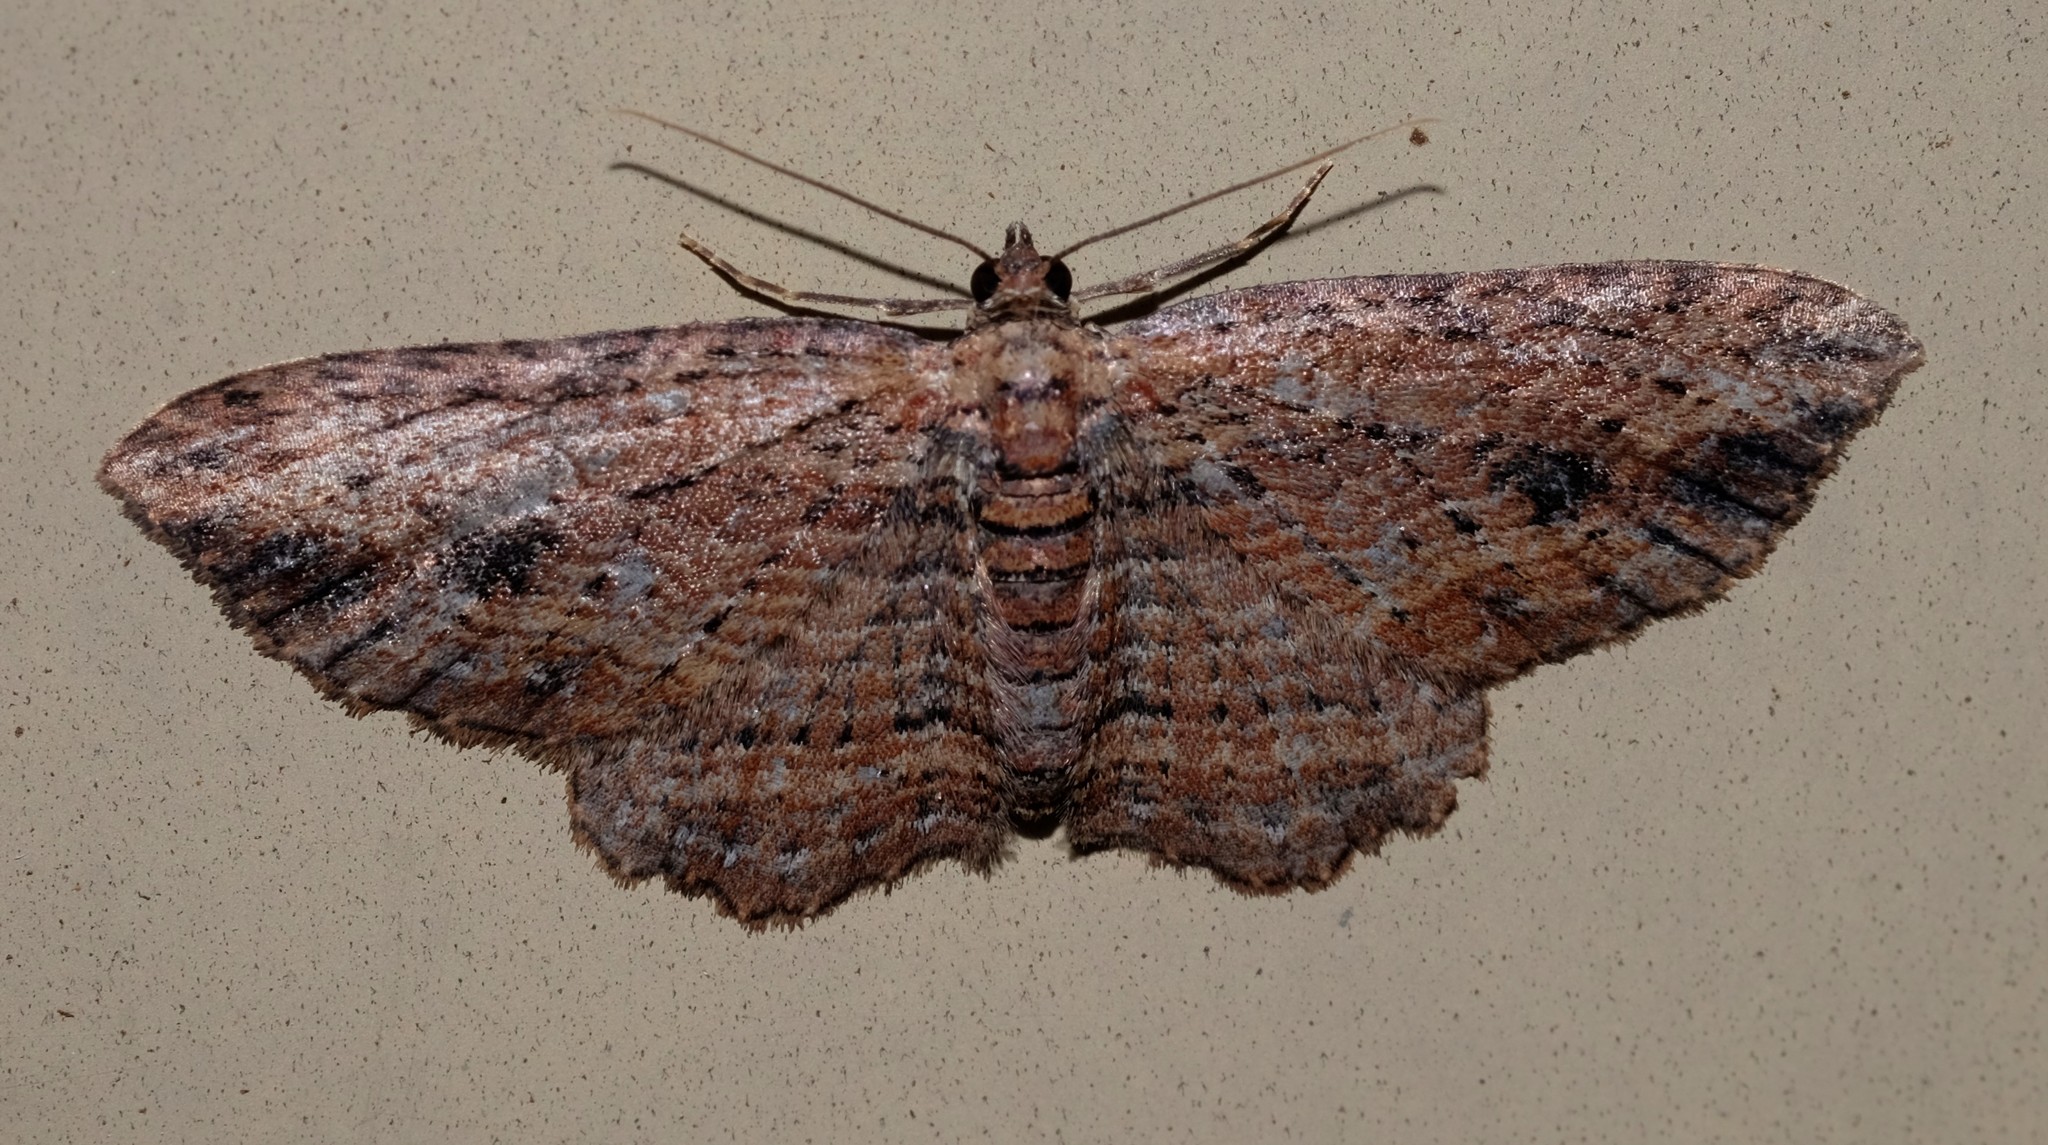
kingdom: Animalia
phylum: Arthropoda
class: Insecta
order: Lepidoptera
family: Geometridae
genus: Xanthorhoe
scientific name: Xanthorhoe anaspila
